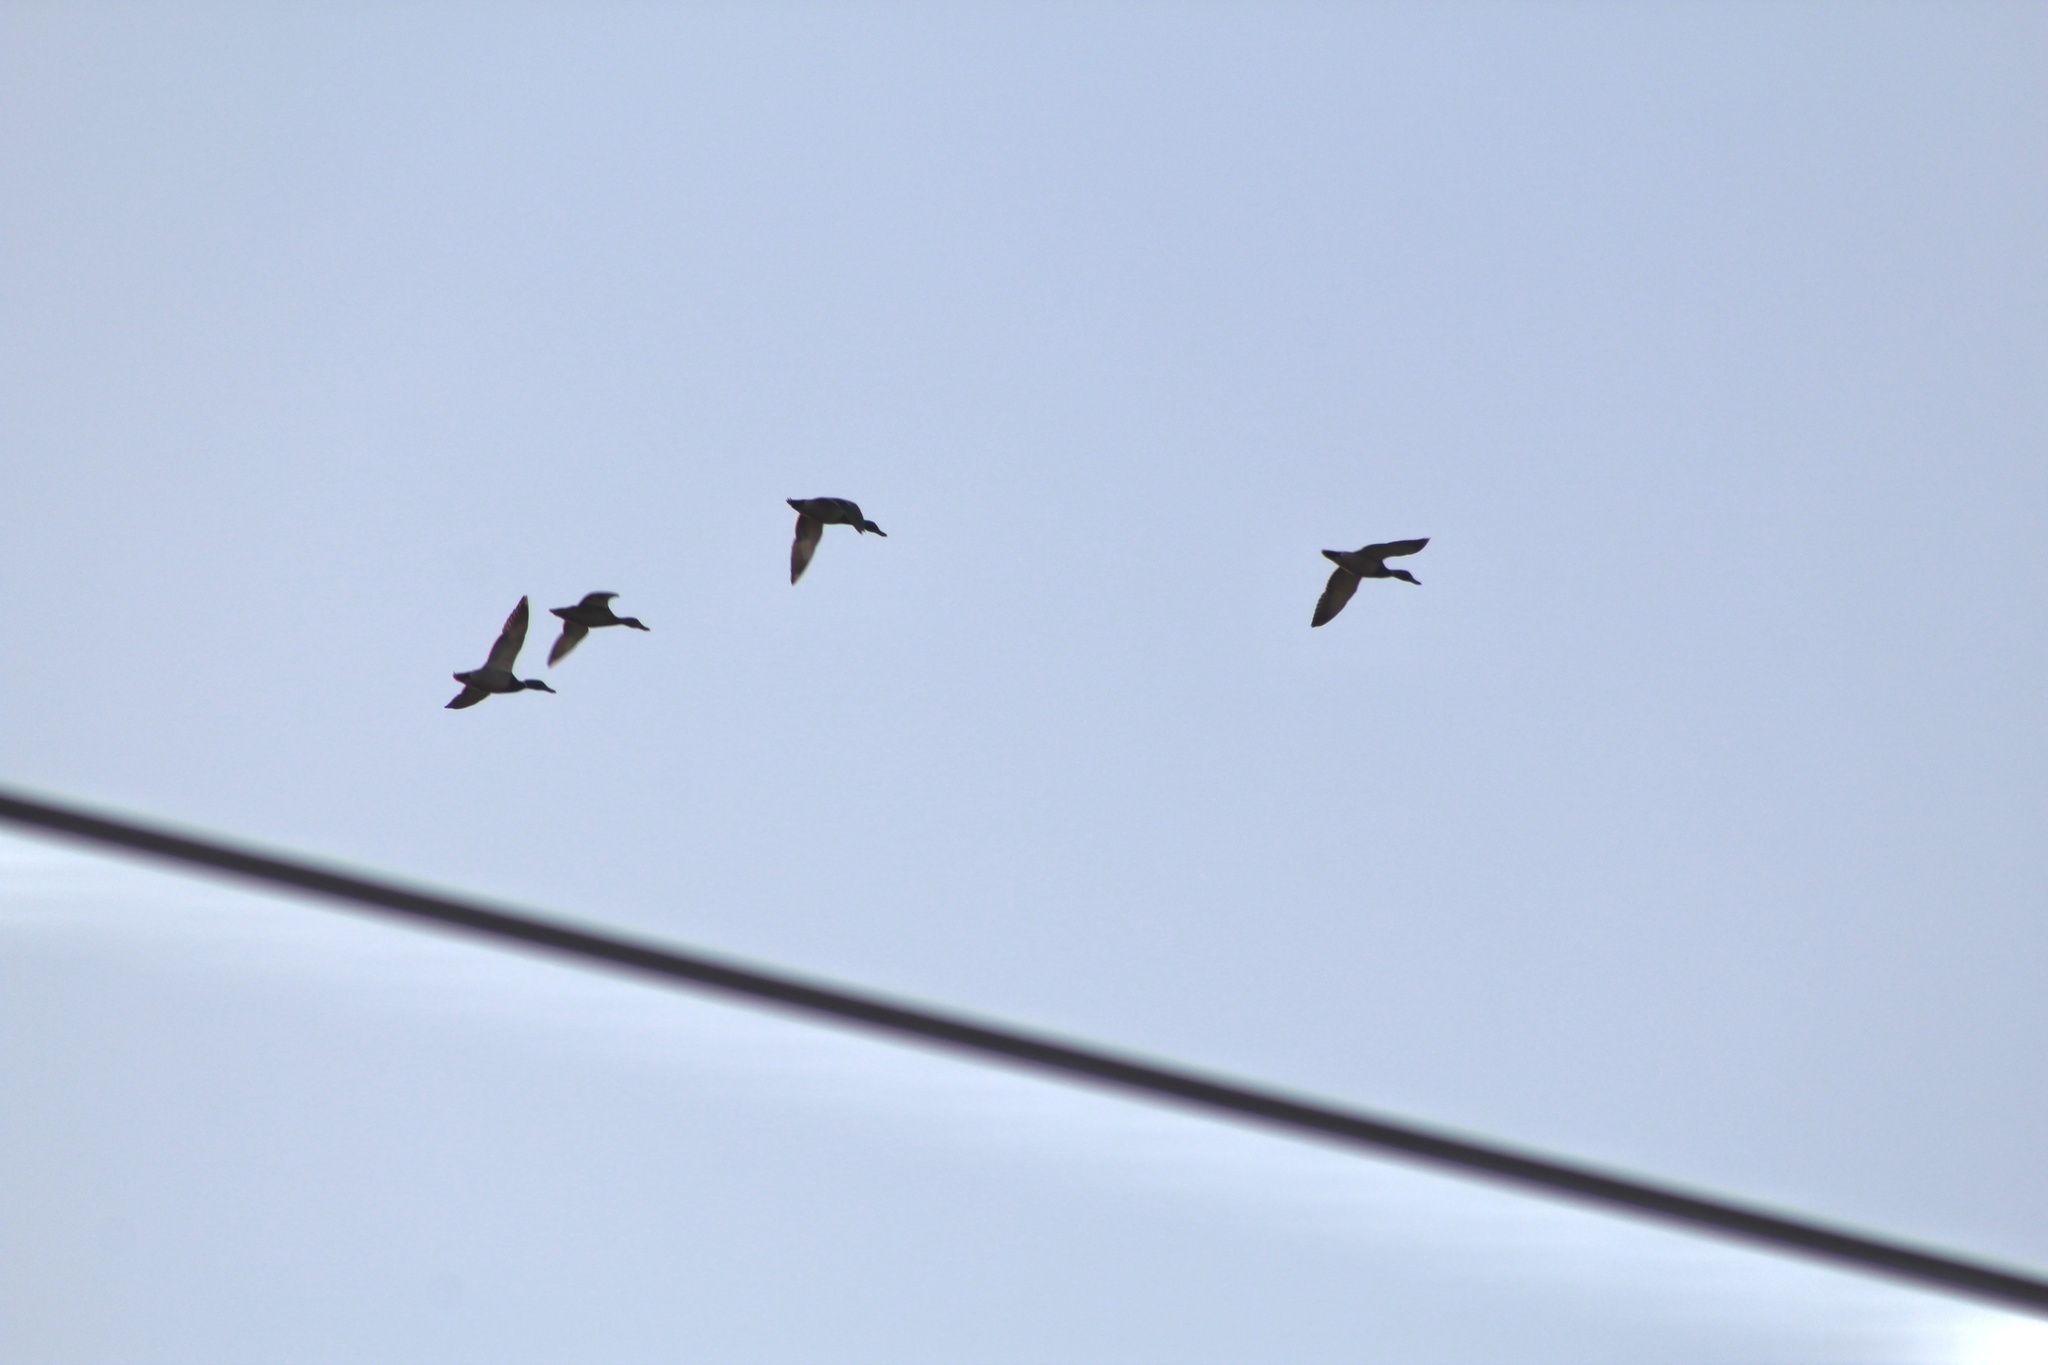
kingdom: Animalia
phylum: Chordata
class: Aves
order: Anseriformes
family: Anatidae
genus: Anas
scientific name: Anas platyrhynchos
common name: Mallard
